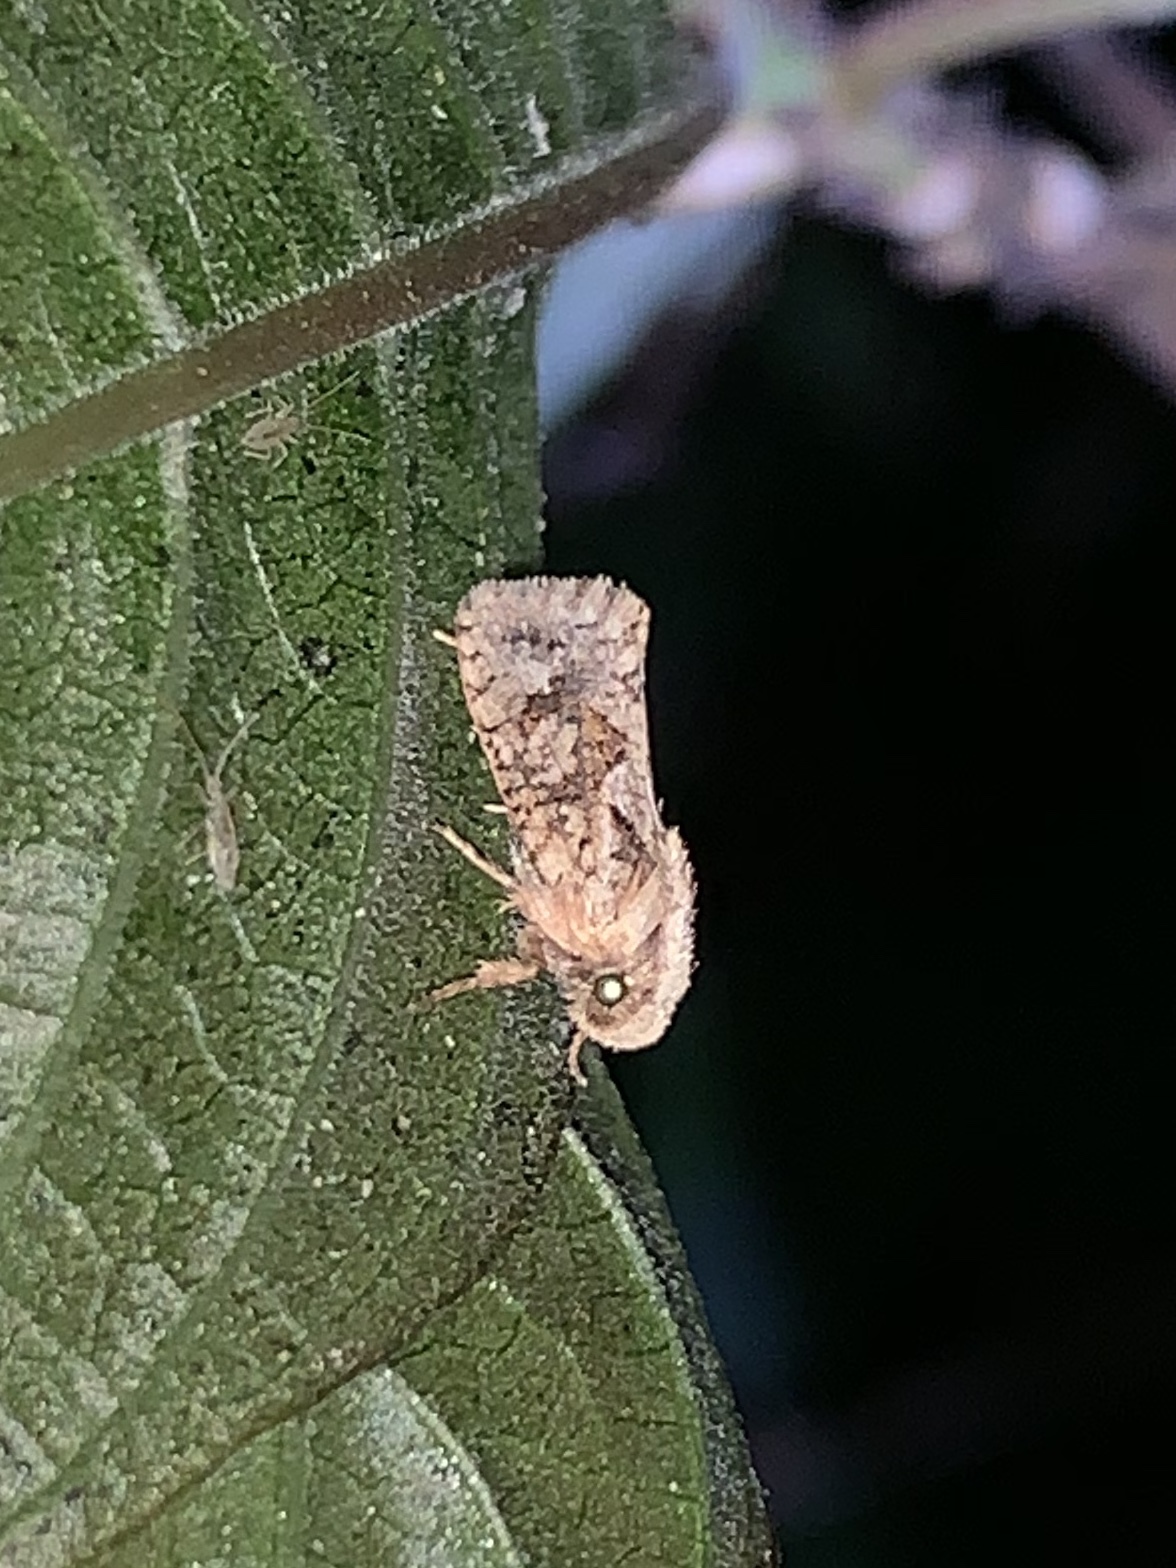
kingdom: Animalia
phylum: Arthropoda
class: Insecta
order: Lepidoptera
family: Tineidae
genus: Acrolophus
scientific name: Acrolophus walsinghami
